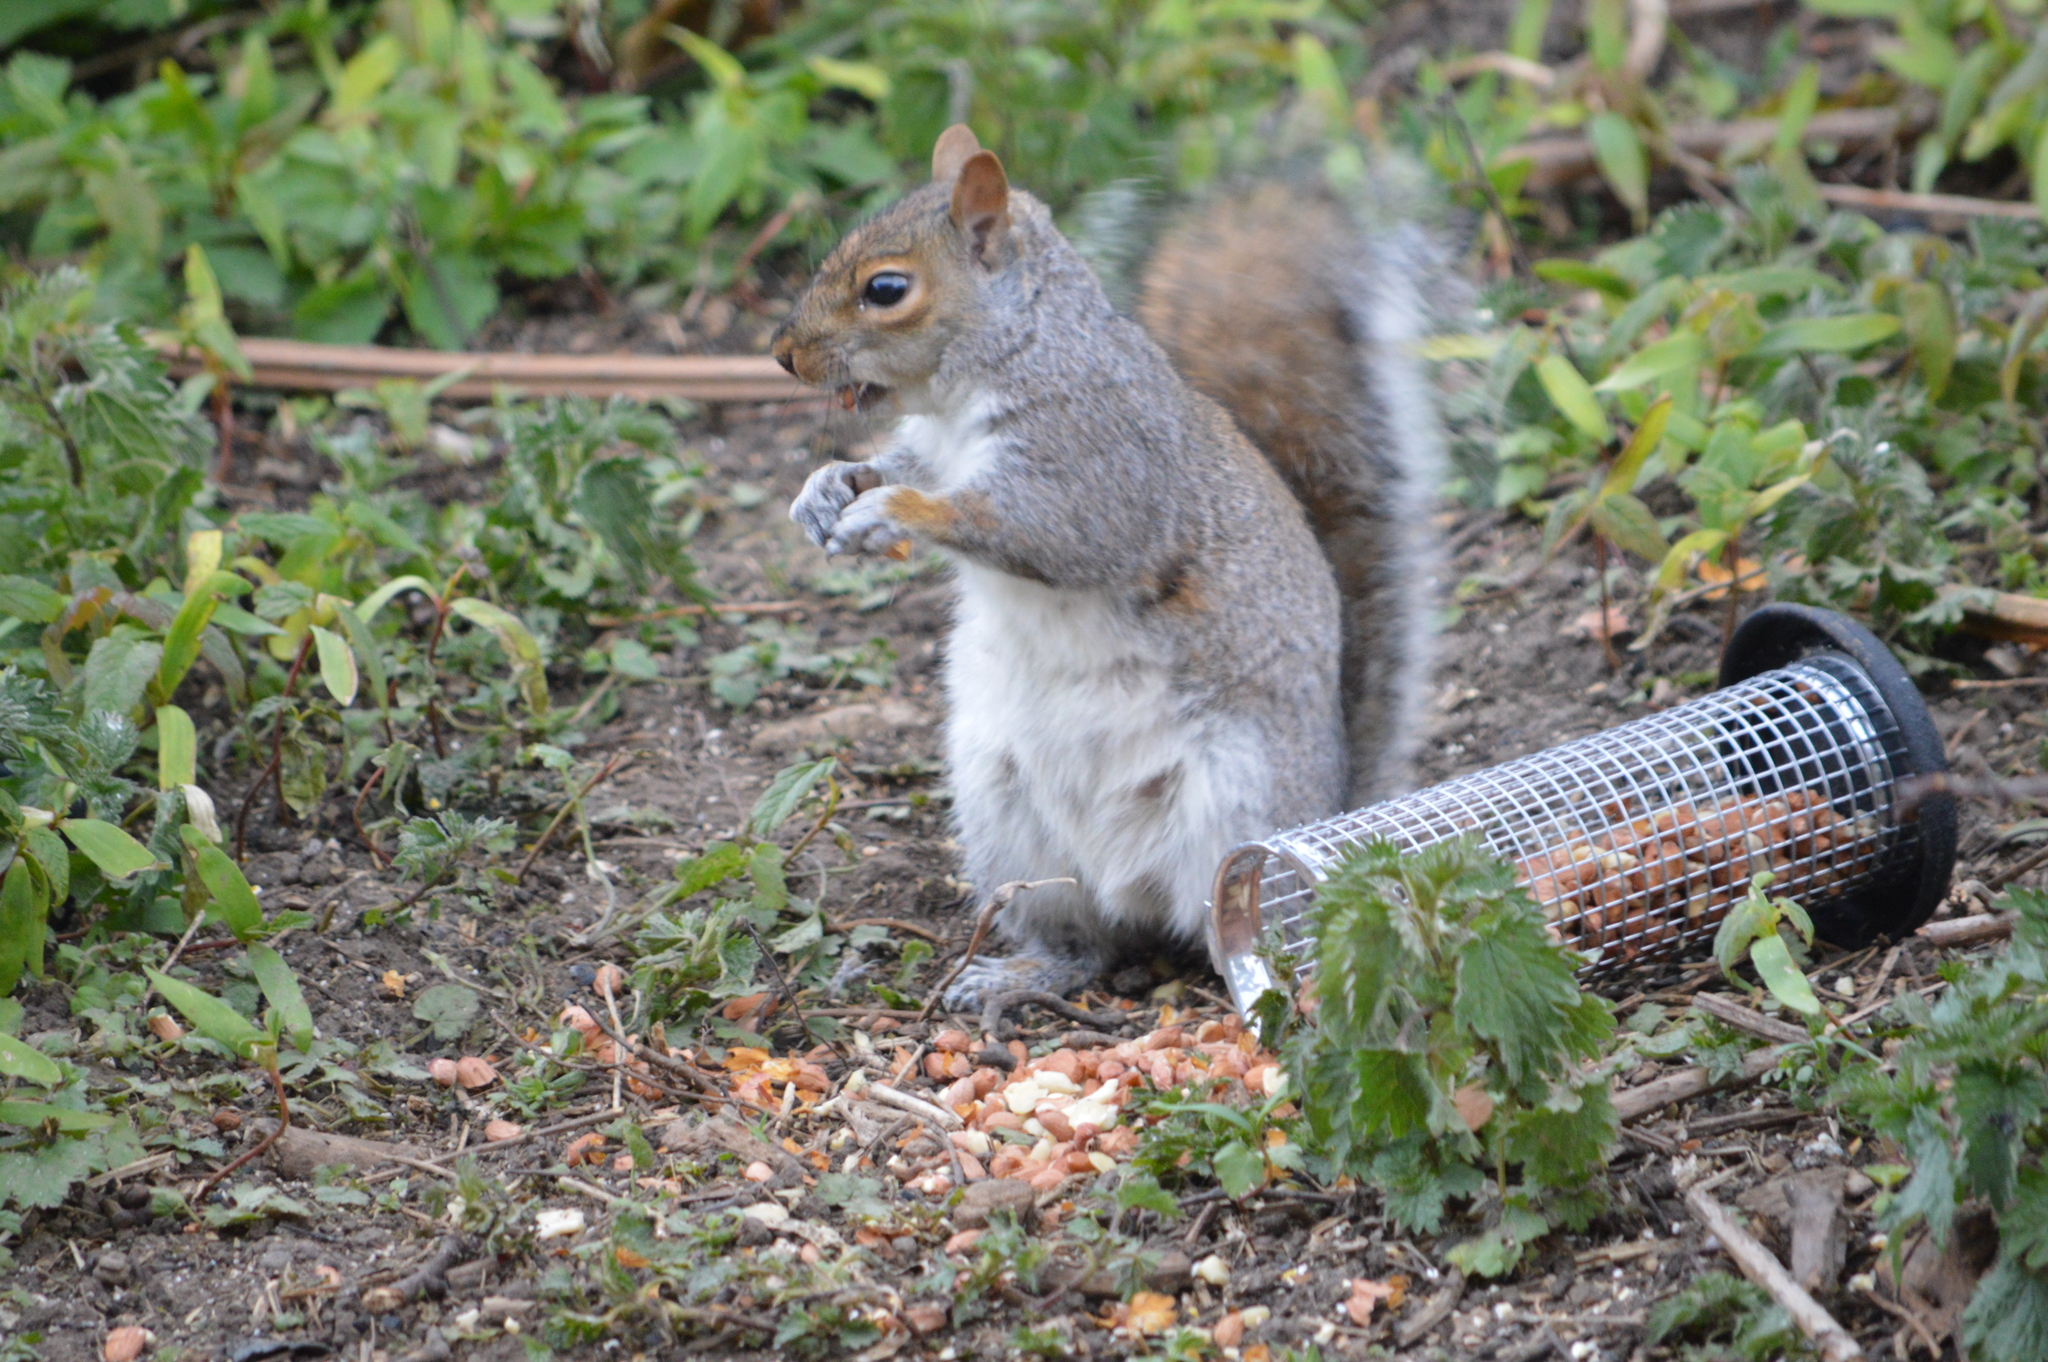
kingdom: Animalia
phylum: Chordata
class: Mammalia
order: Rodentia
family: Sciuridae
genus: Sciurus
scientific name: Sciurus carolinensis
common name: Eastern gray squirrel
